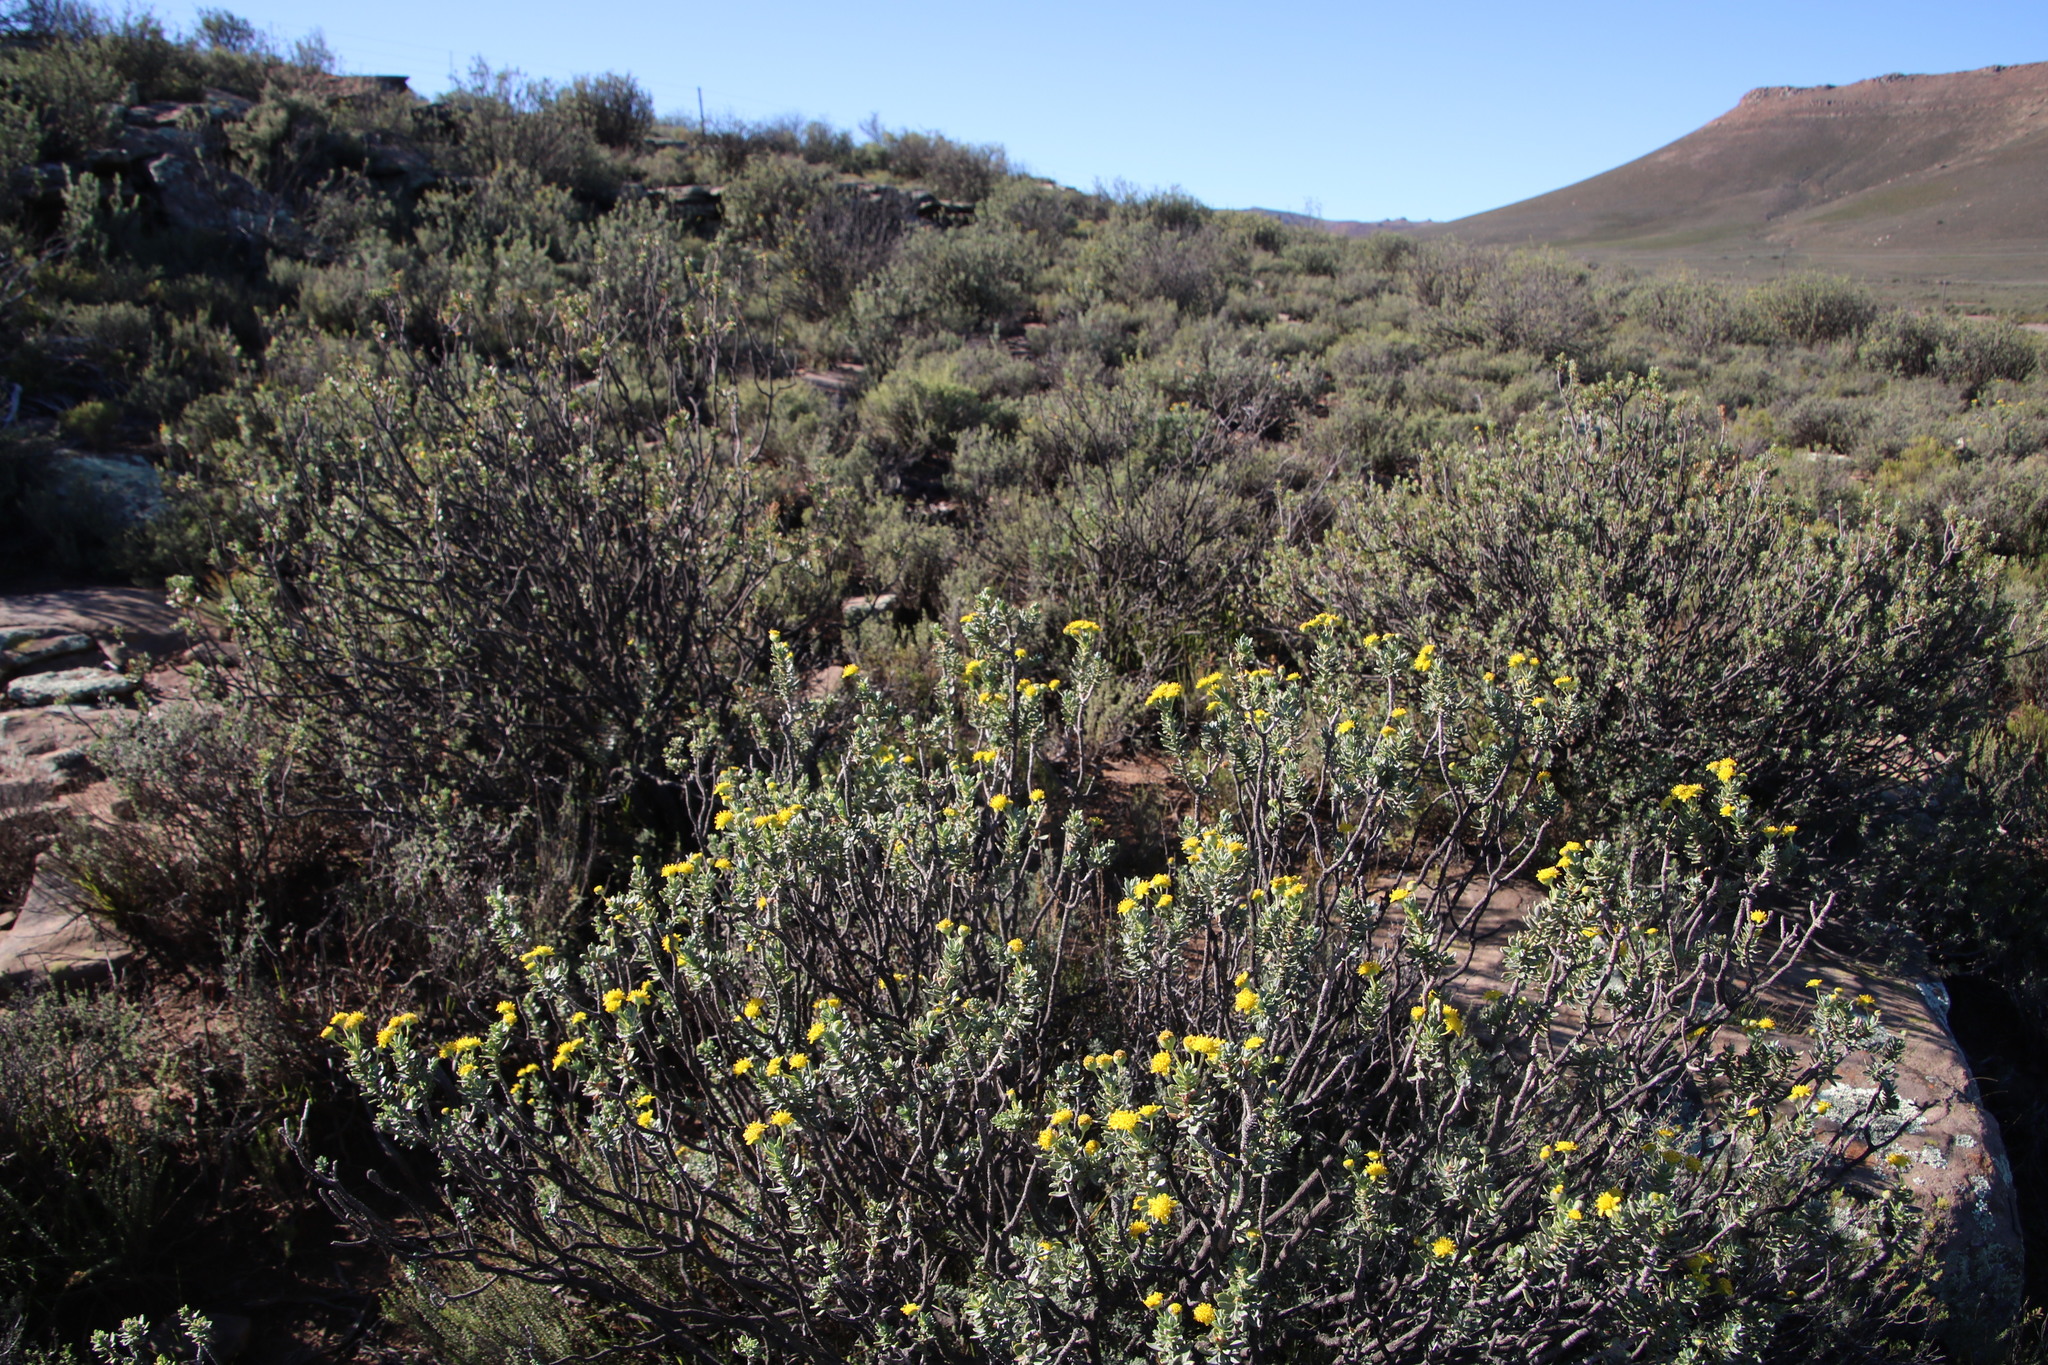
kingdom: Plantae
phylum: Tracheophyta
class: Magnoliopsida
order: Asterales
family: Asteraceae
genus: Euryops
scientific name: Euryops lateriflorus
